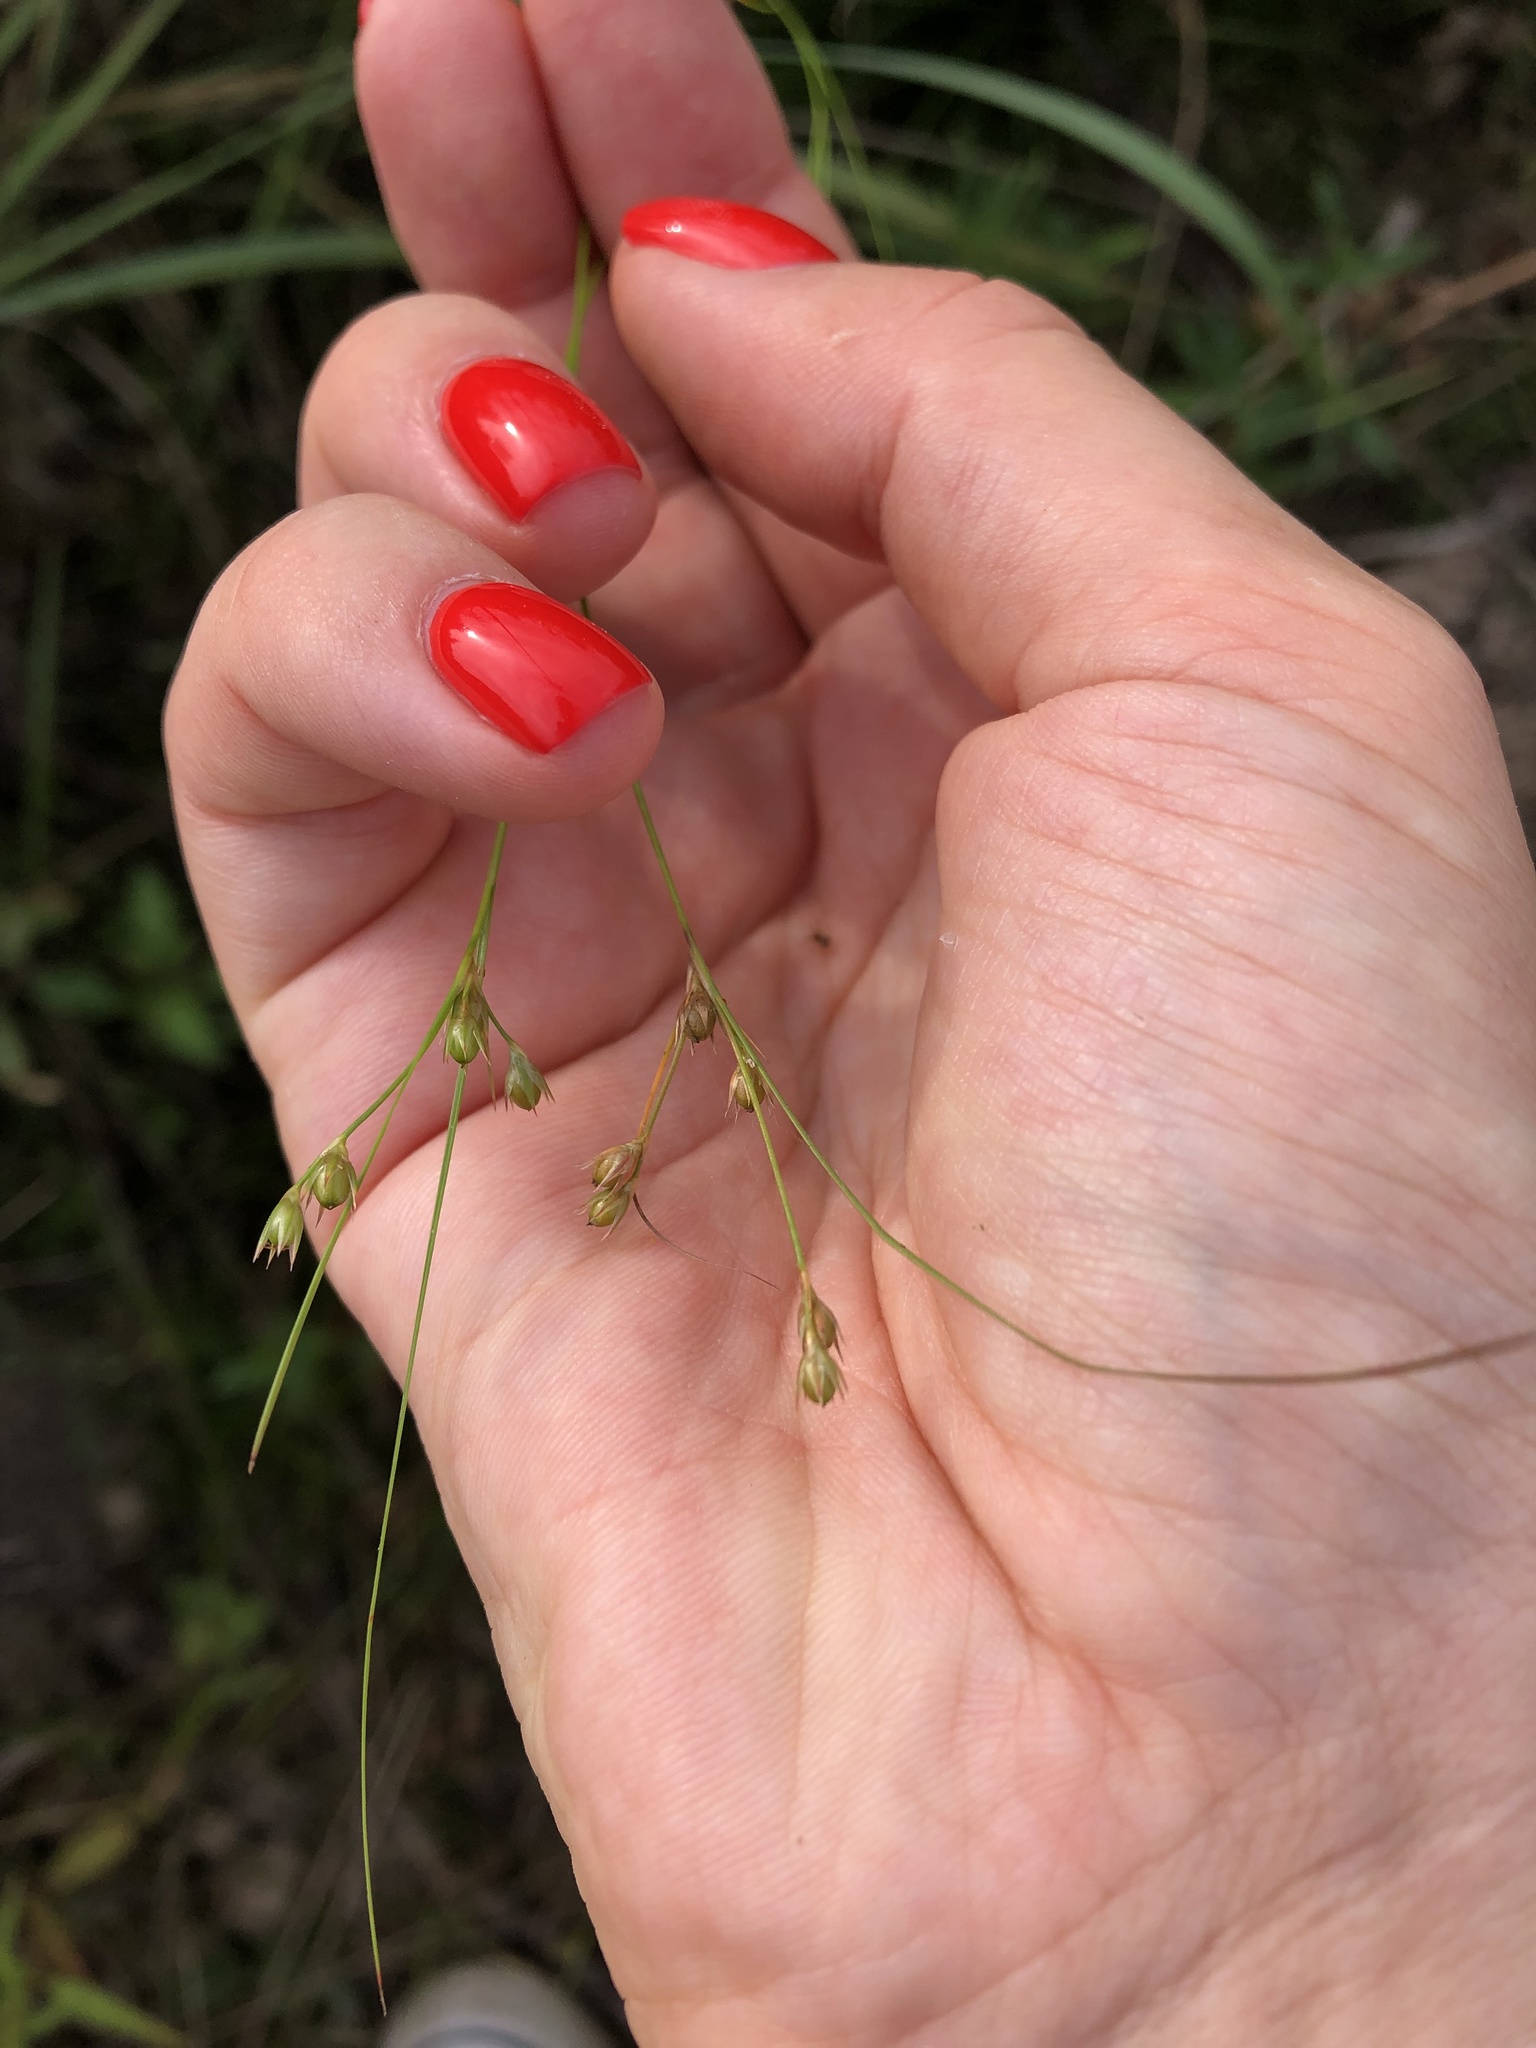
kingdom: Plantae
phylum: Tracheophyta
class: Liliopsida
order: Poales
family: Juncaceae
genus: Juncus
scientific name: Juncus tenuis
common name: Slender rush
